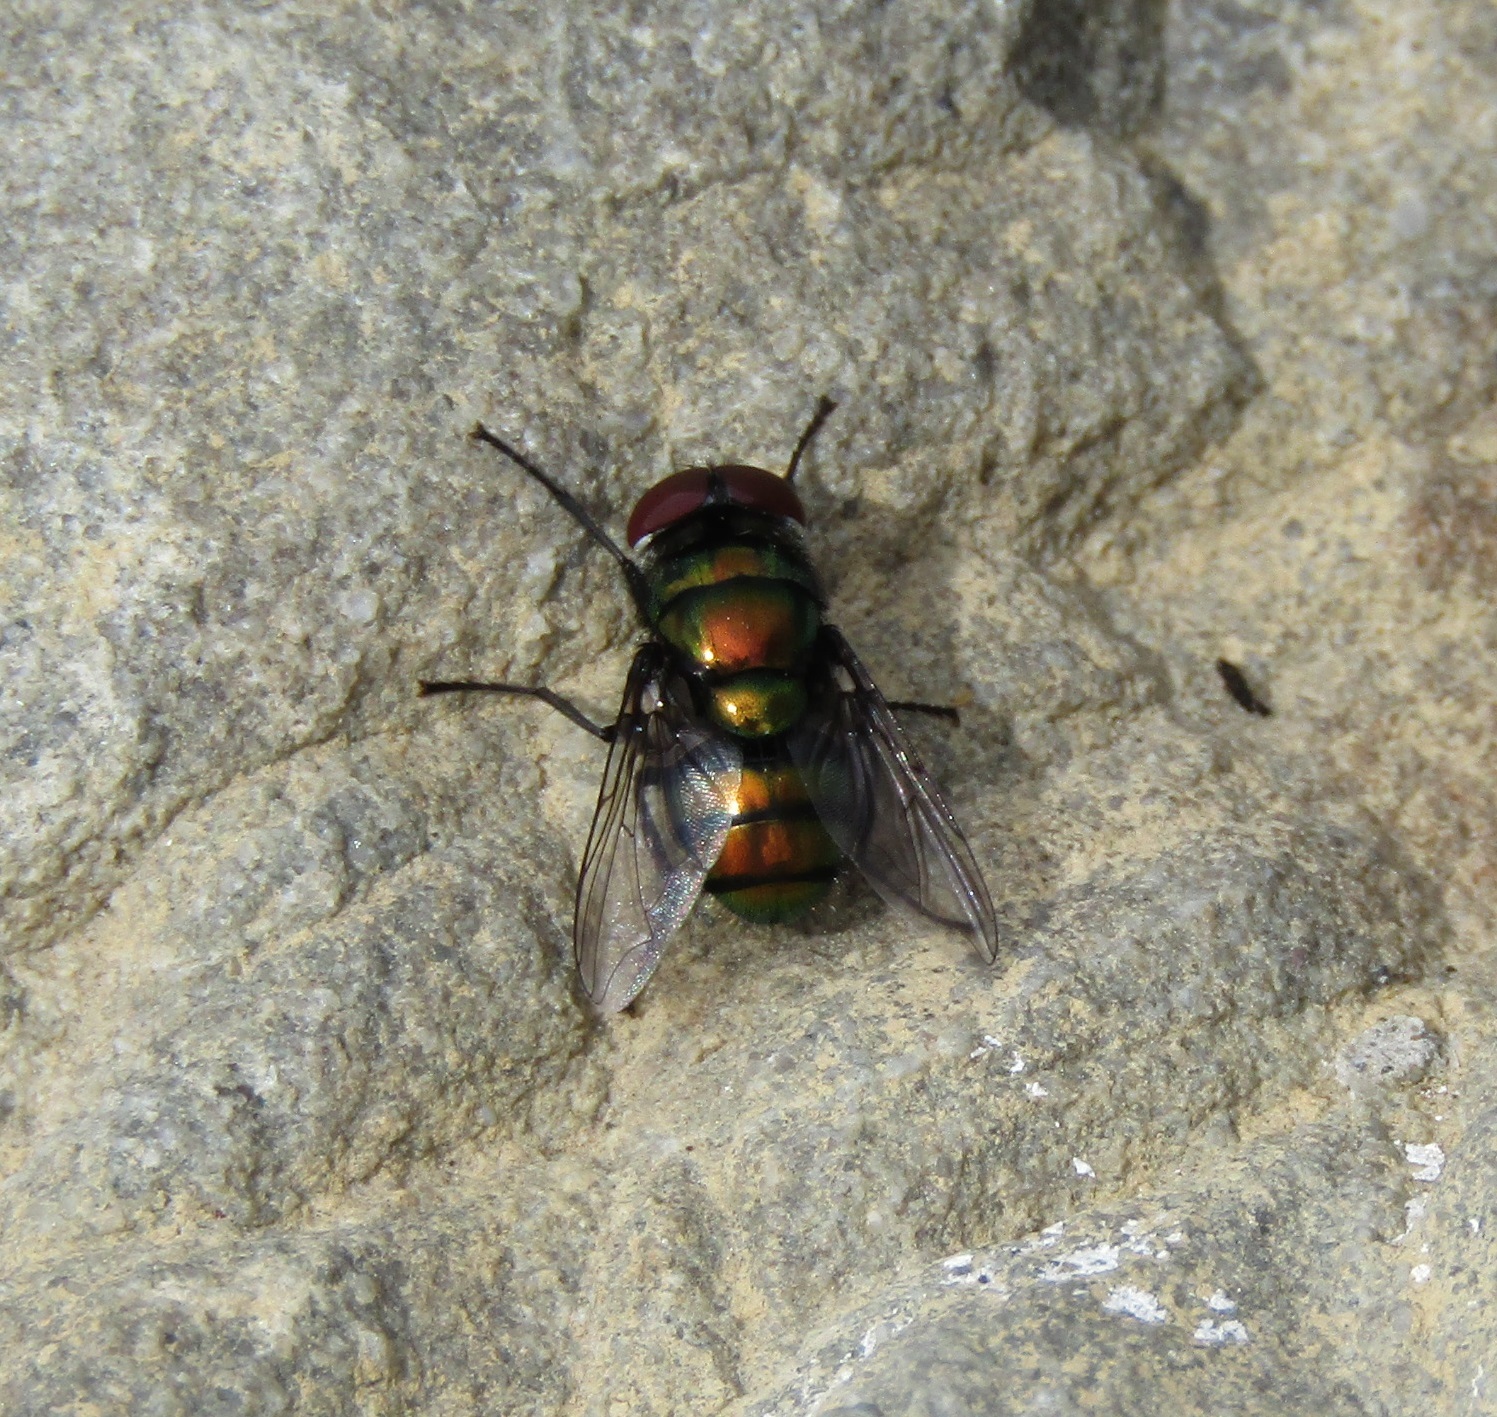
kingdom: Animalia
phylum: Arthropoda
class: Insecta
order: Diptera
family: Calliphoridae
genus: Chrysomya
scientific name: Chrysomya rufifacies
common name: Blow fly
